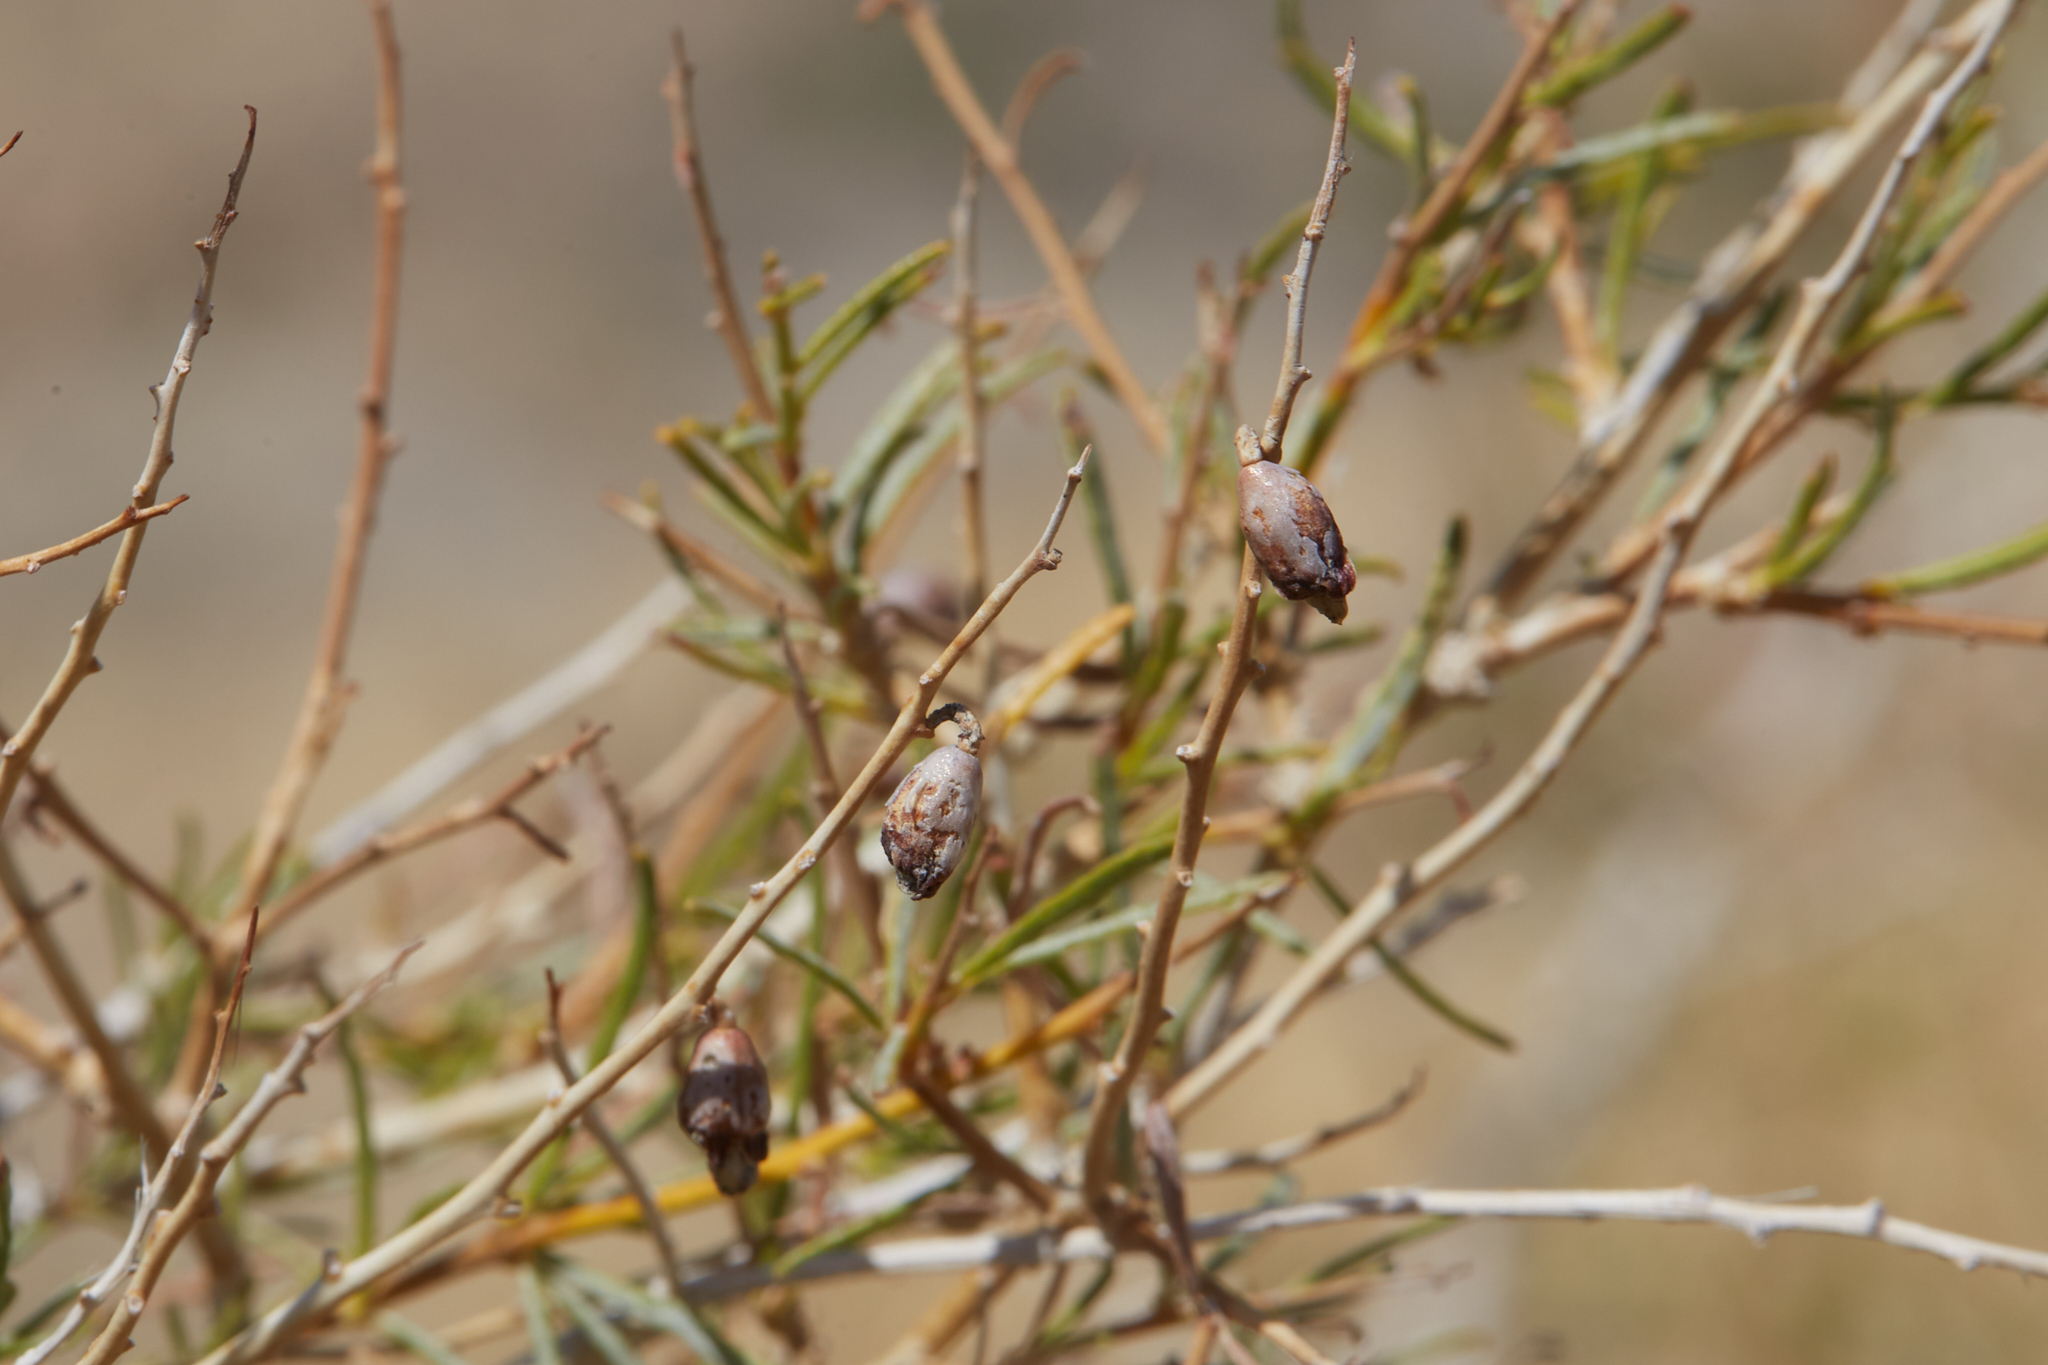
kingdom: Plantae
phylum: Tracheophyta
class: Magnoliopsida
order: Fabales
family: Fabaceae
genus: Psorothamnus
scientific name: Psorothamnus schottii
